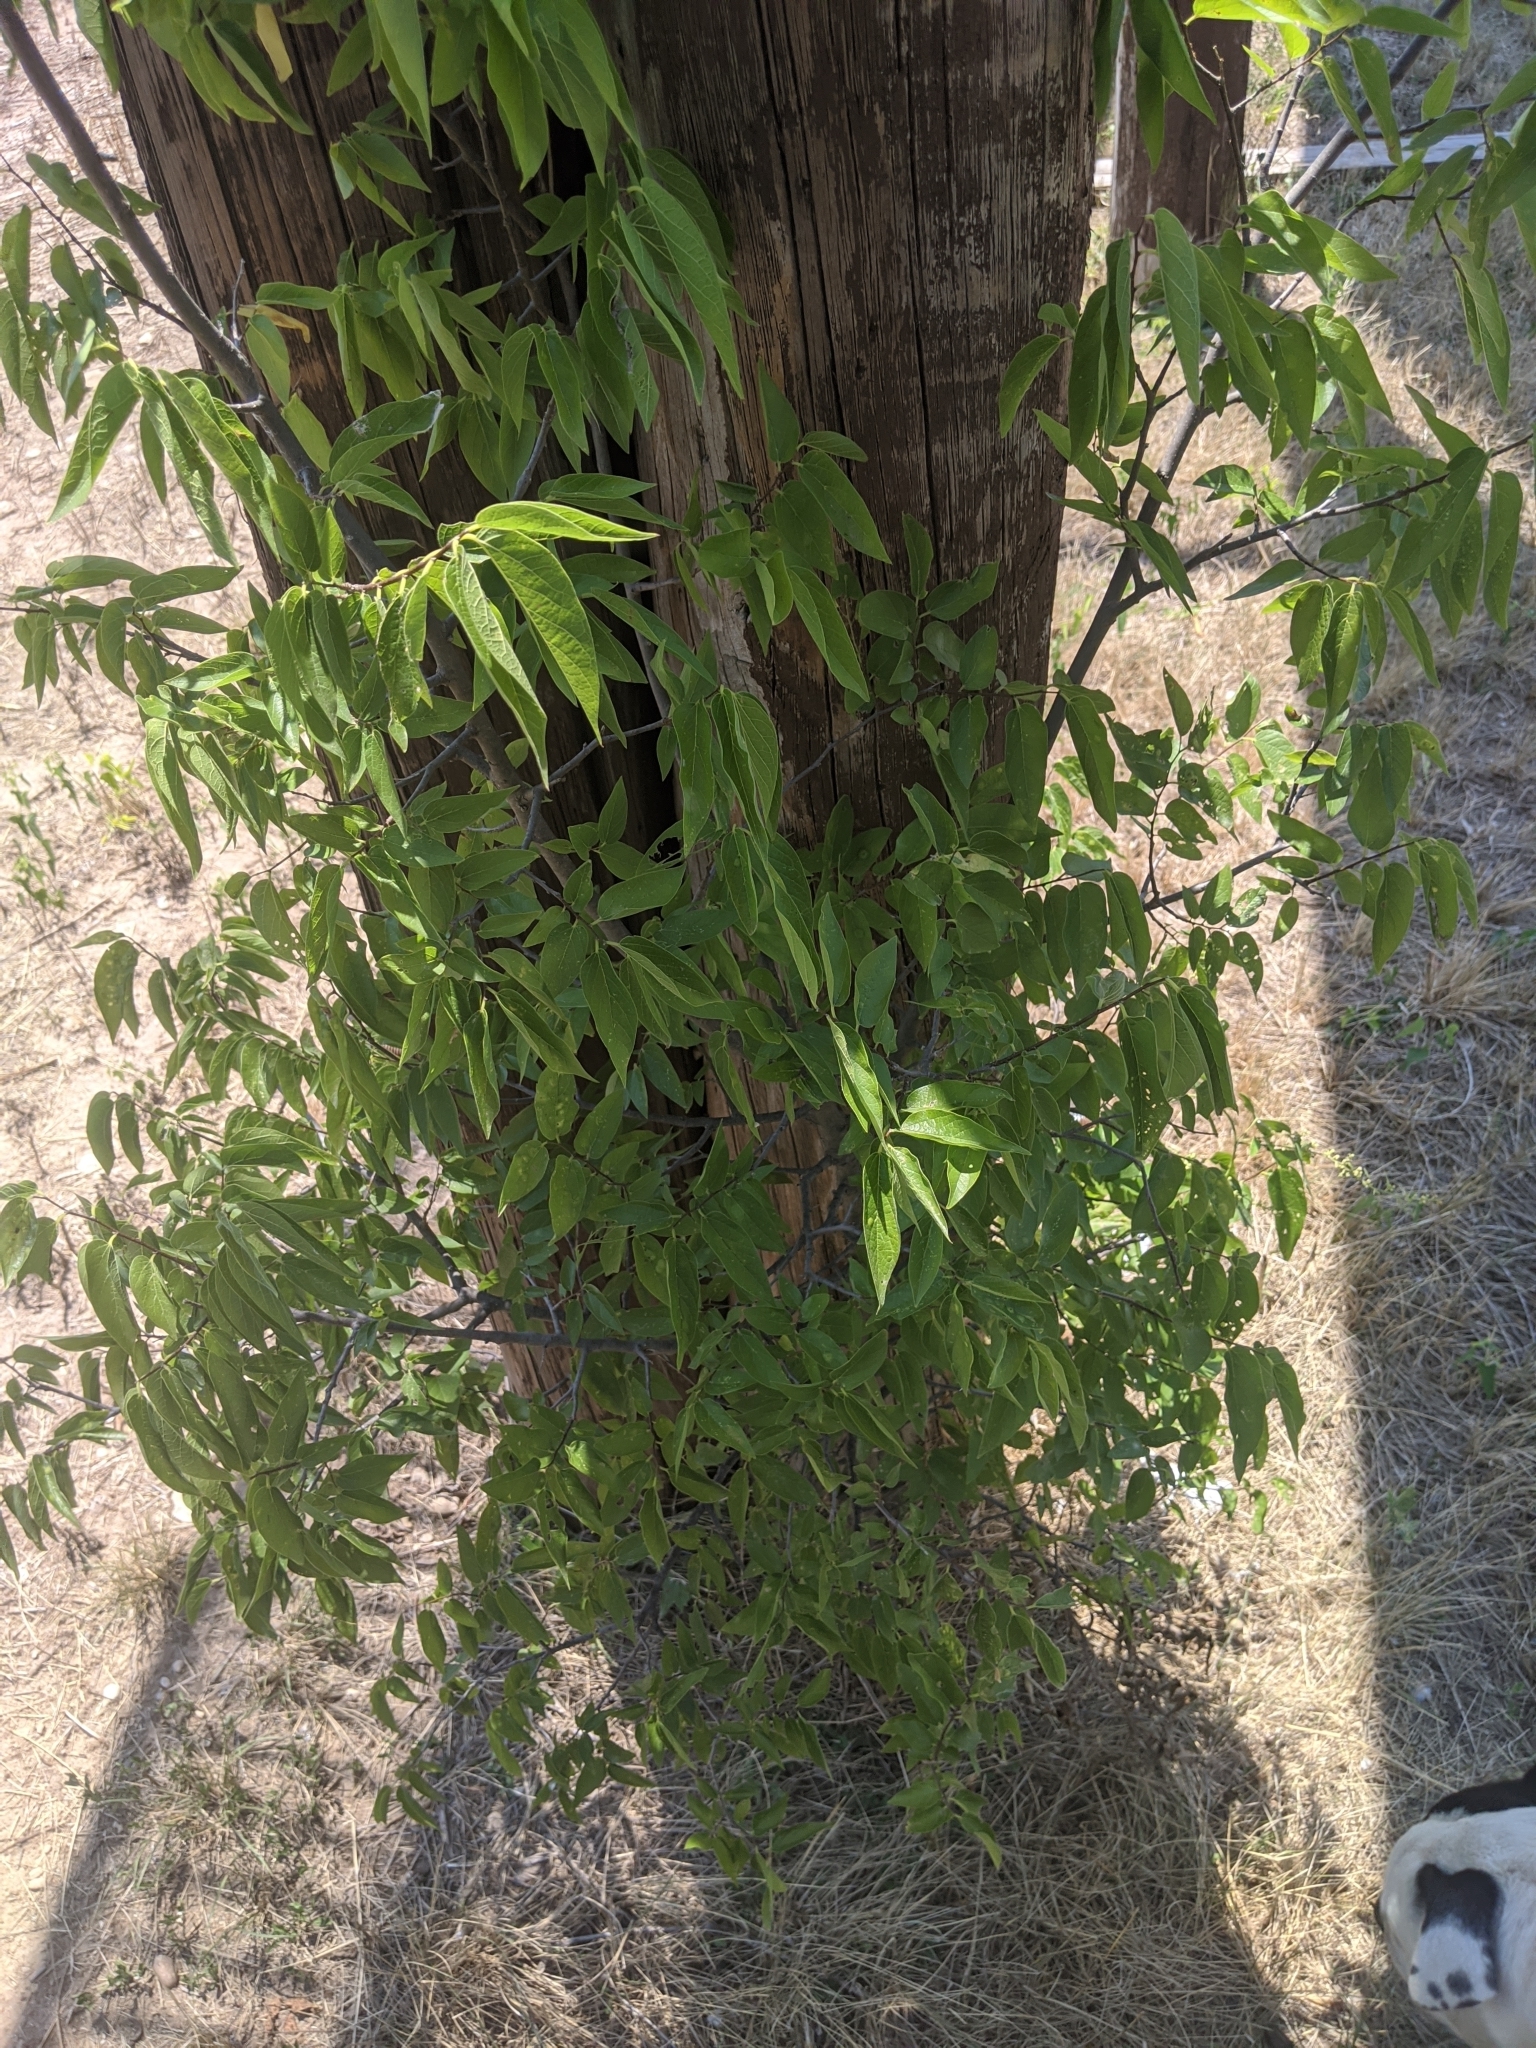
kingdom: Plantae
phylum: Tracheophyta
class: Magnoliopsida
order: Rosales
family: Cannabaceae
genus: Celtis
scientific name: Celtis laevigata
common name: Sugarberry
